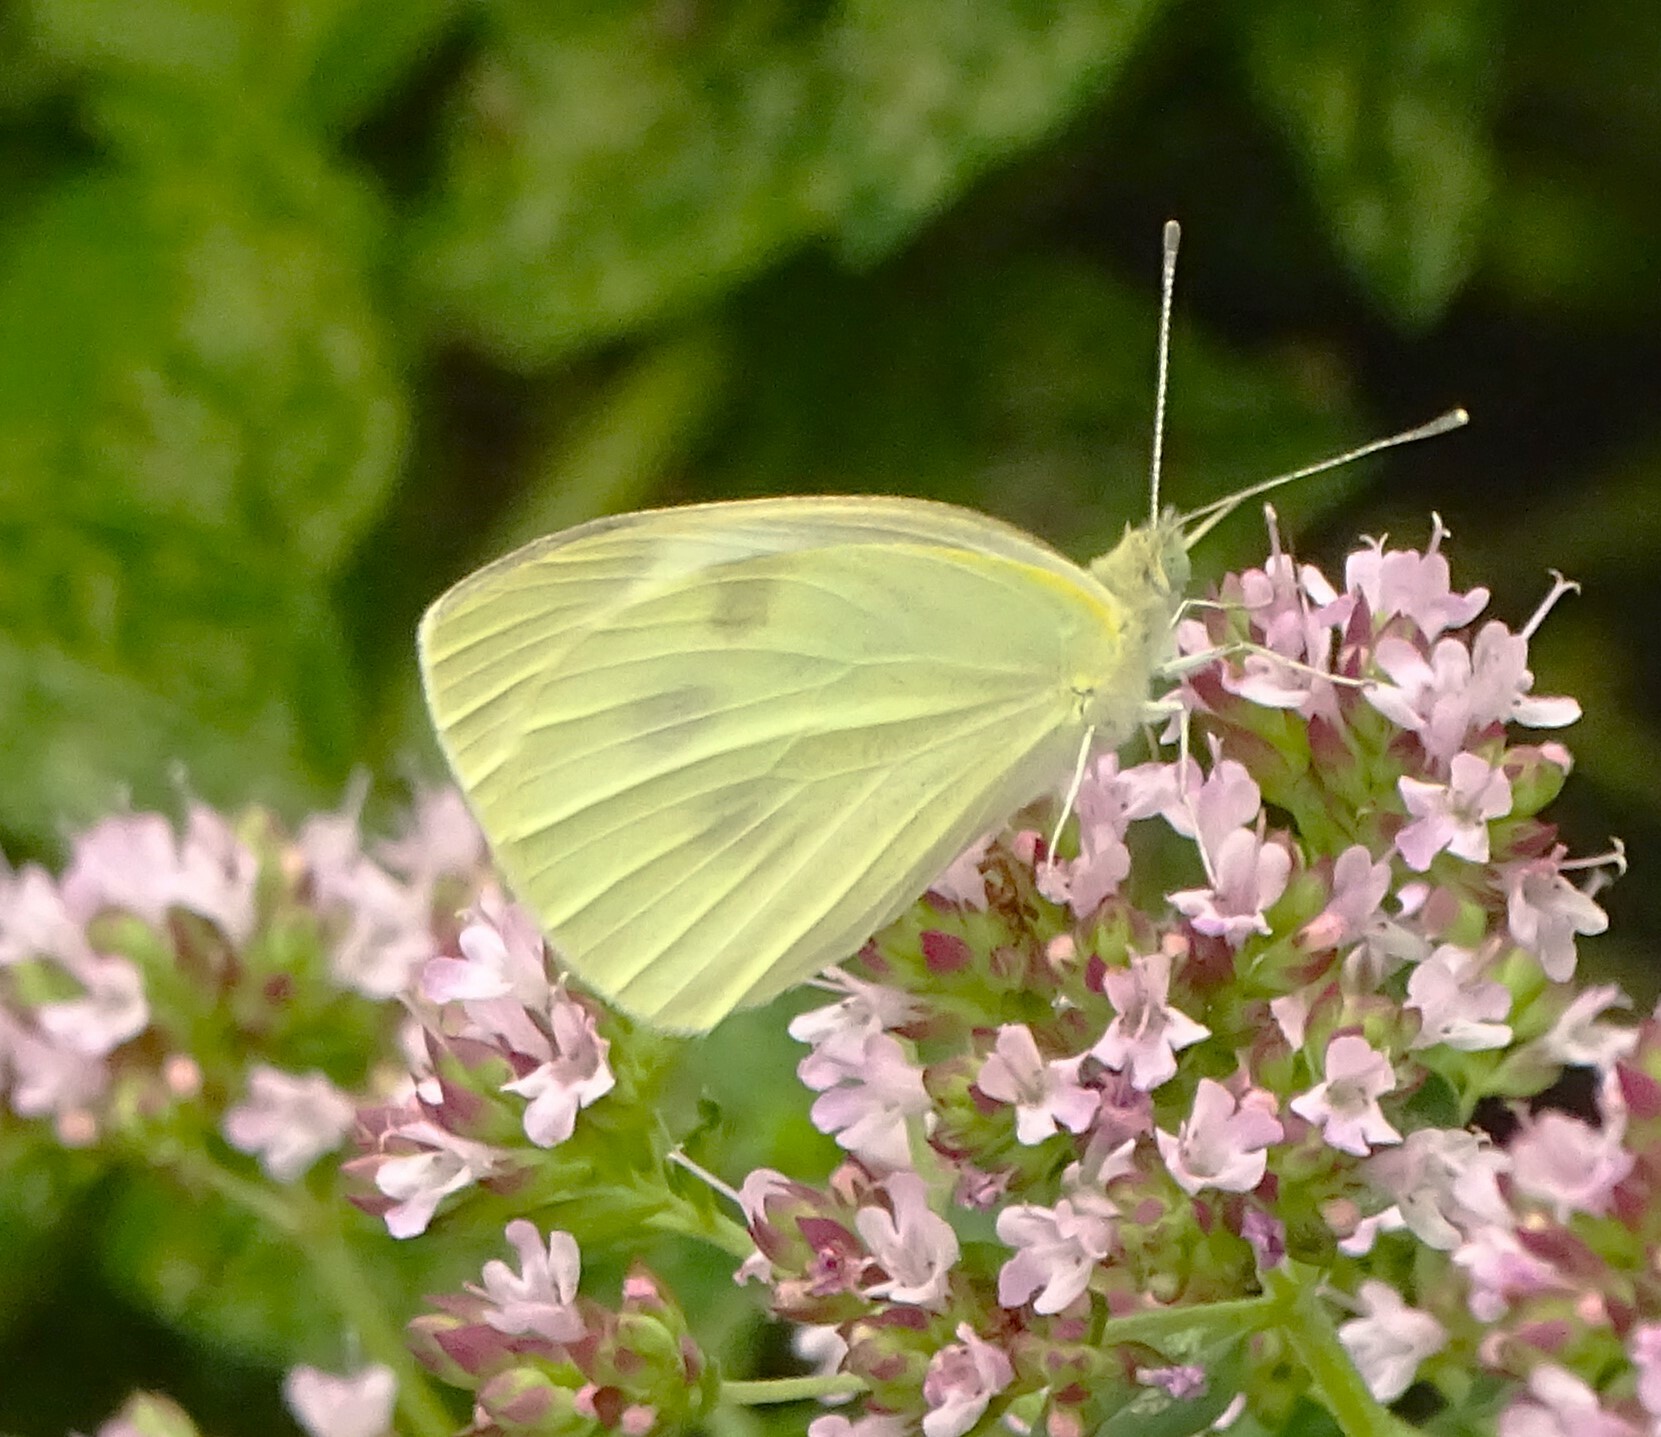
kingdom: Animalia
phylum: Arthropoda
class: Insecta
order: Lepidoptera
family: Pieridae
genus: Pieris
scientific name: Pieris rapae
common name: Small white
